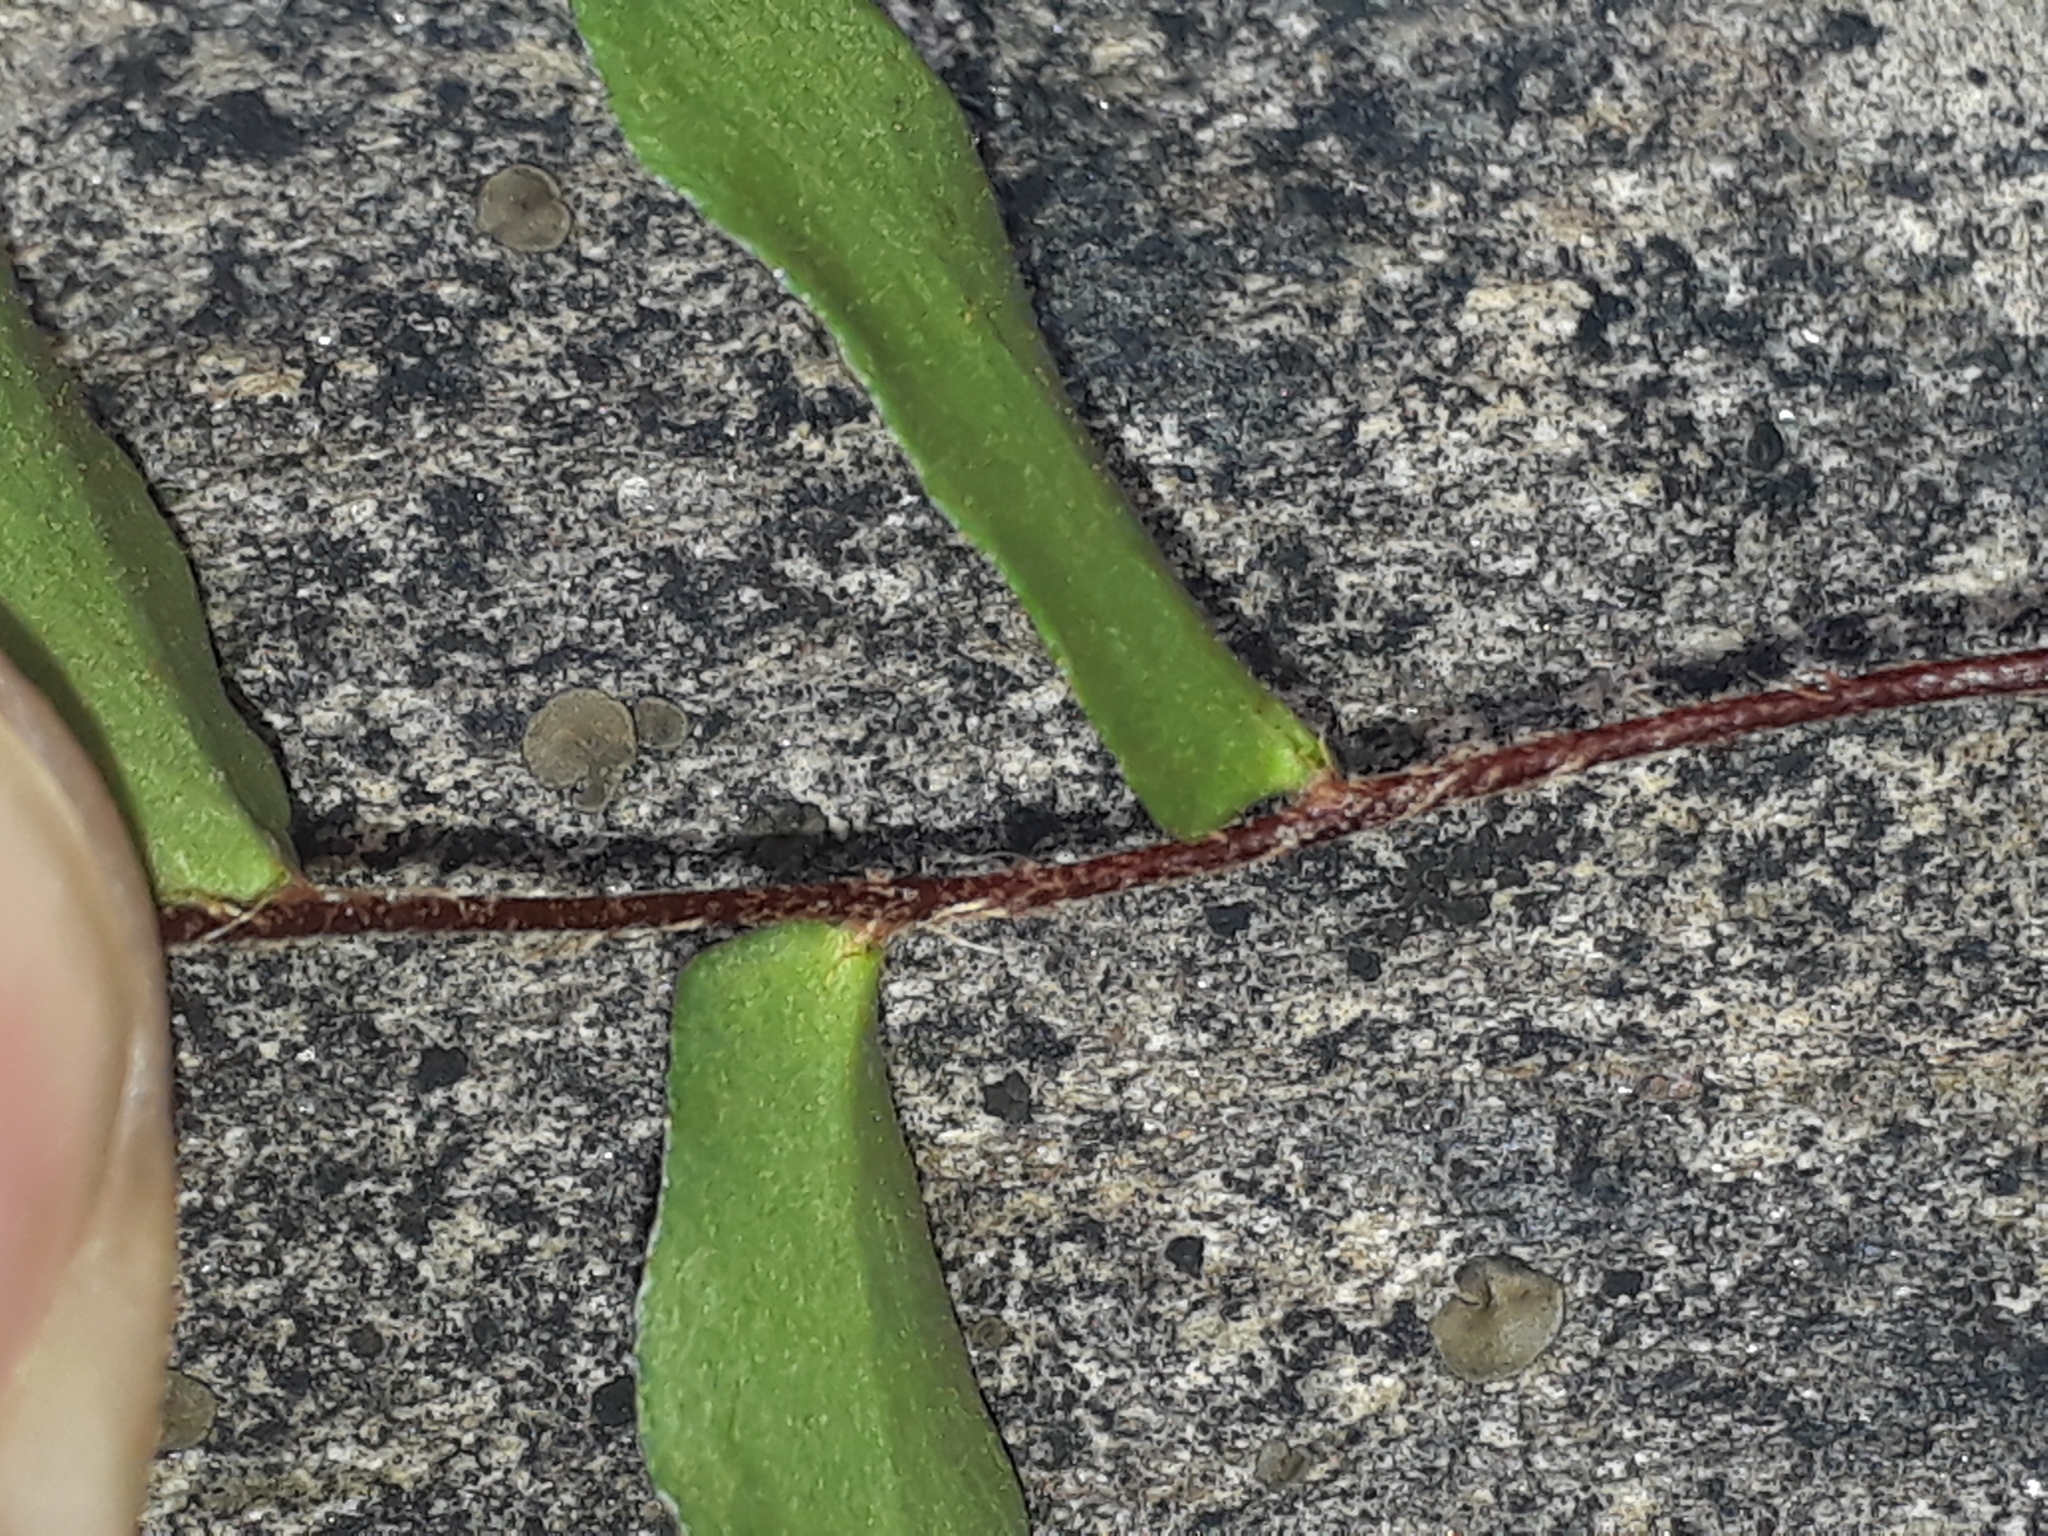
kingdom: Plantae
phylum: Tracheophyta
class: Polypodiopsida
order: Polypodiales
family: Pteridaceae
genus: Pellaea
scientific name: Pellaea calidirupium
